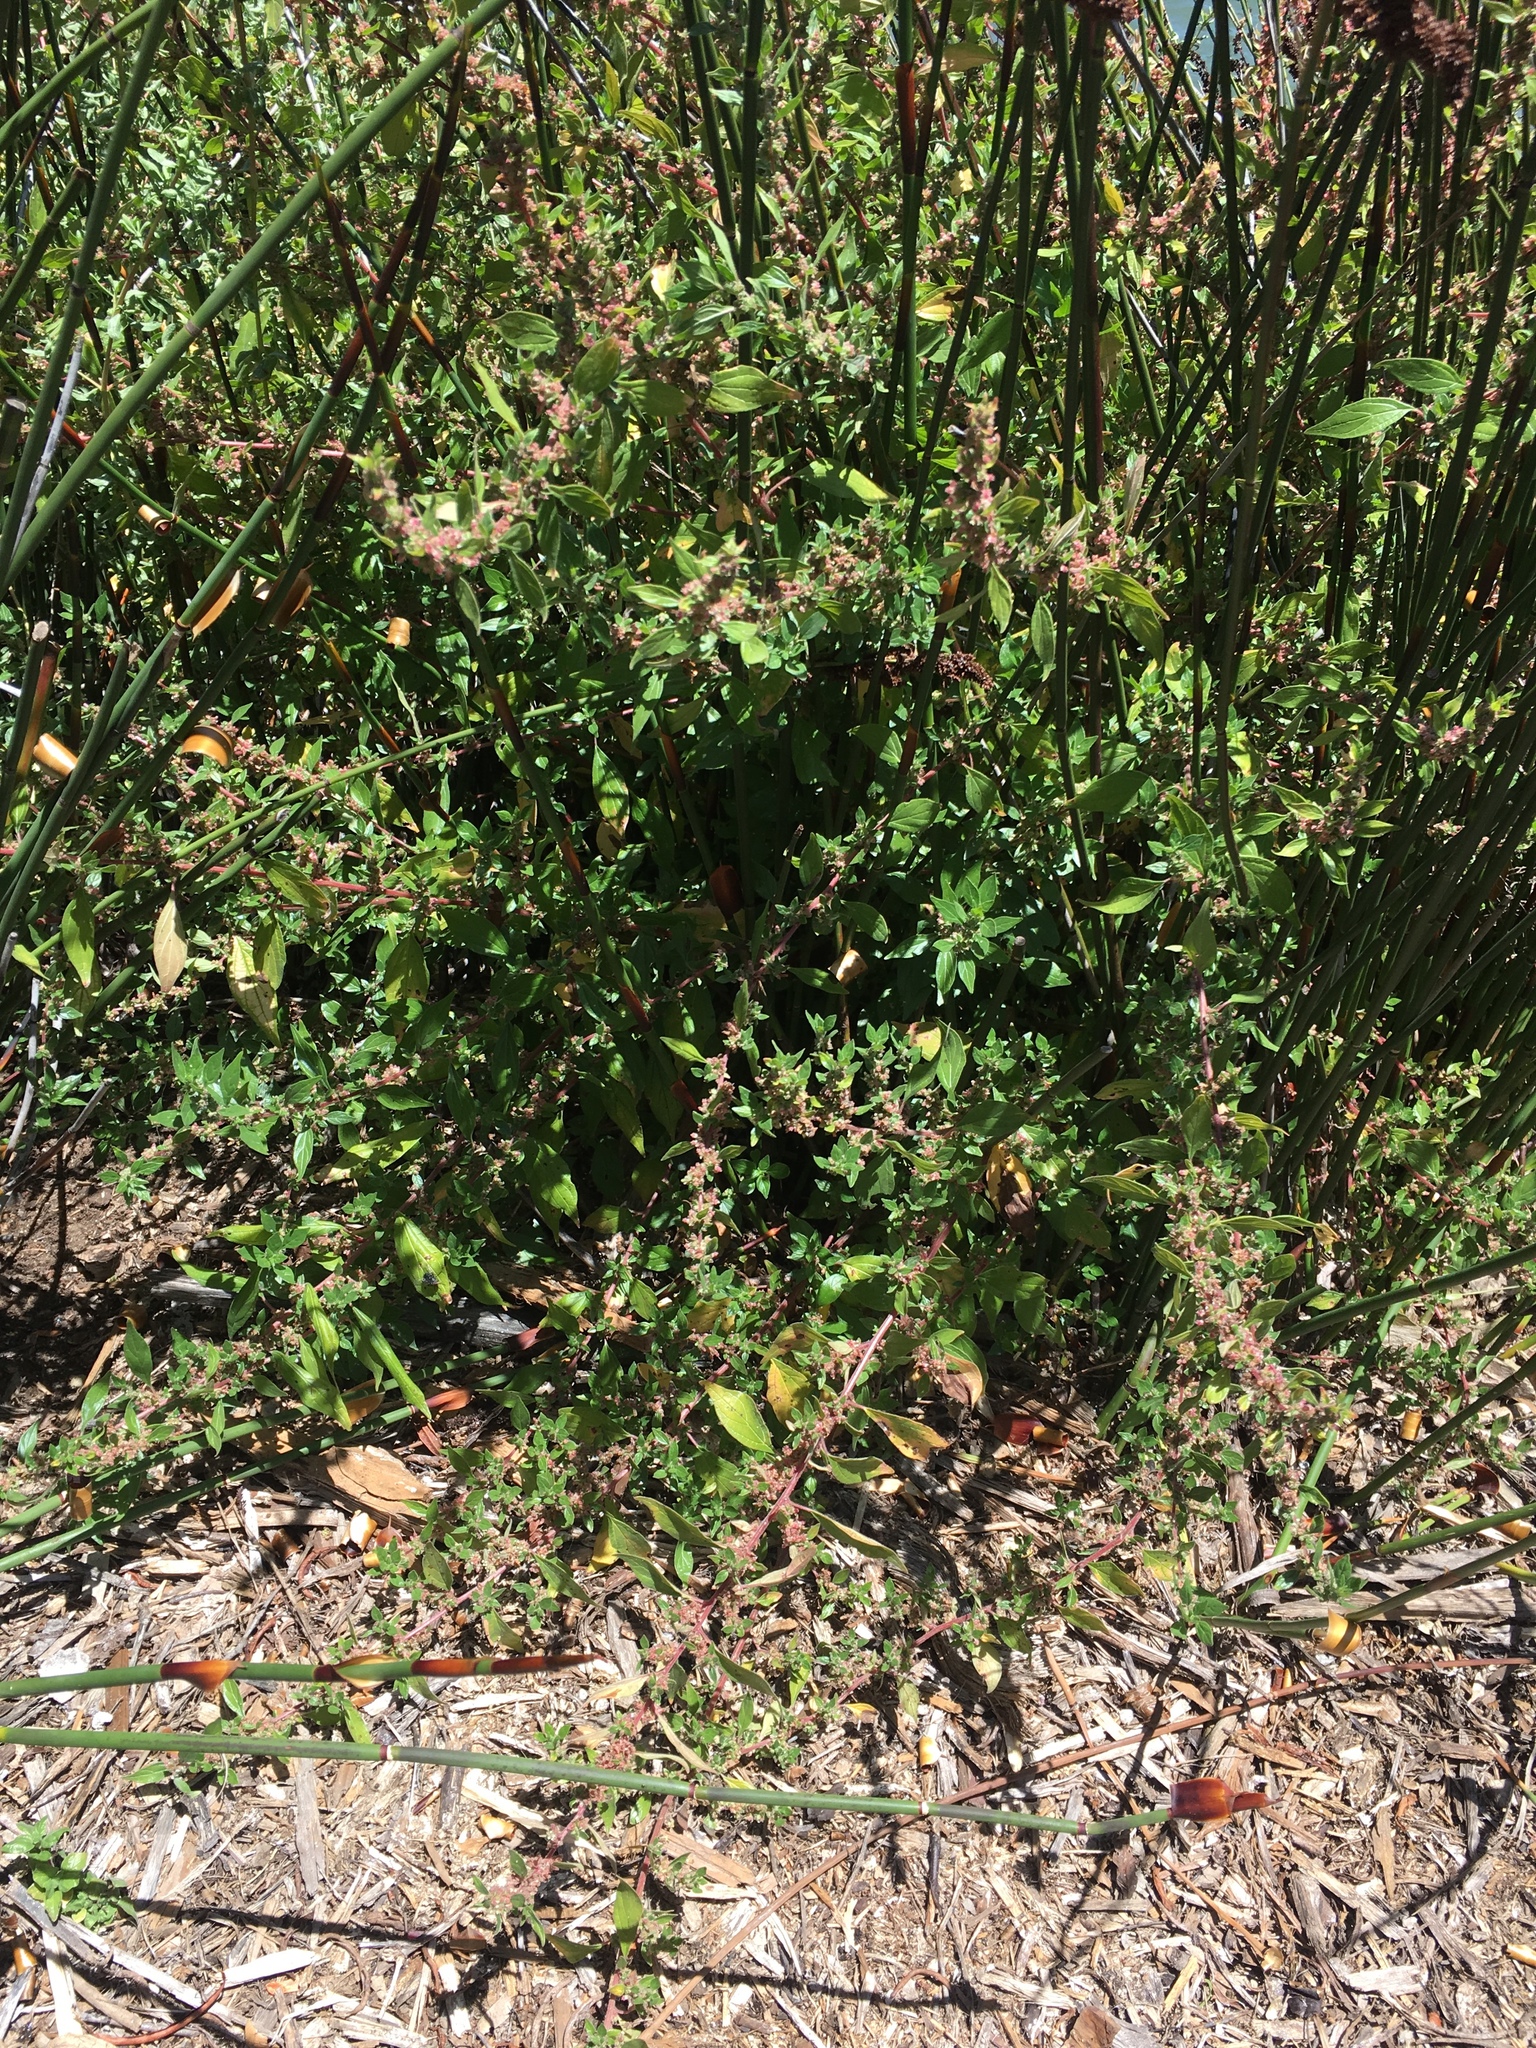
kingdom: Plantae
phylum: Tracheophyta
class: Magnoliopsida
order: Rosales
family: Urticaceae
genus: Parietaria
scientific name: Parietaria judaica
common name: Pellitory-of-the-wall
